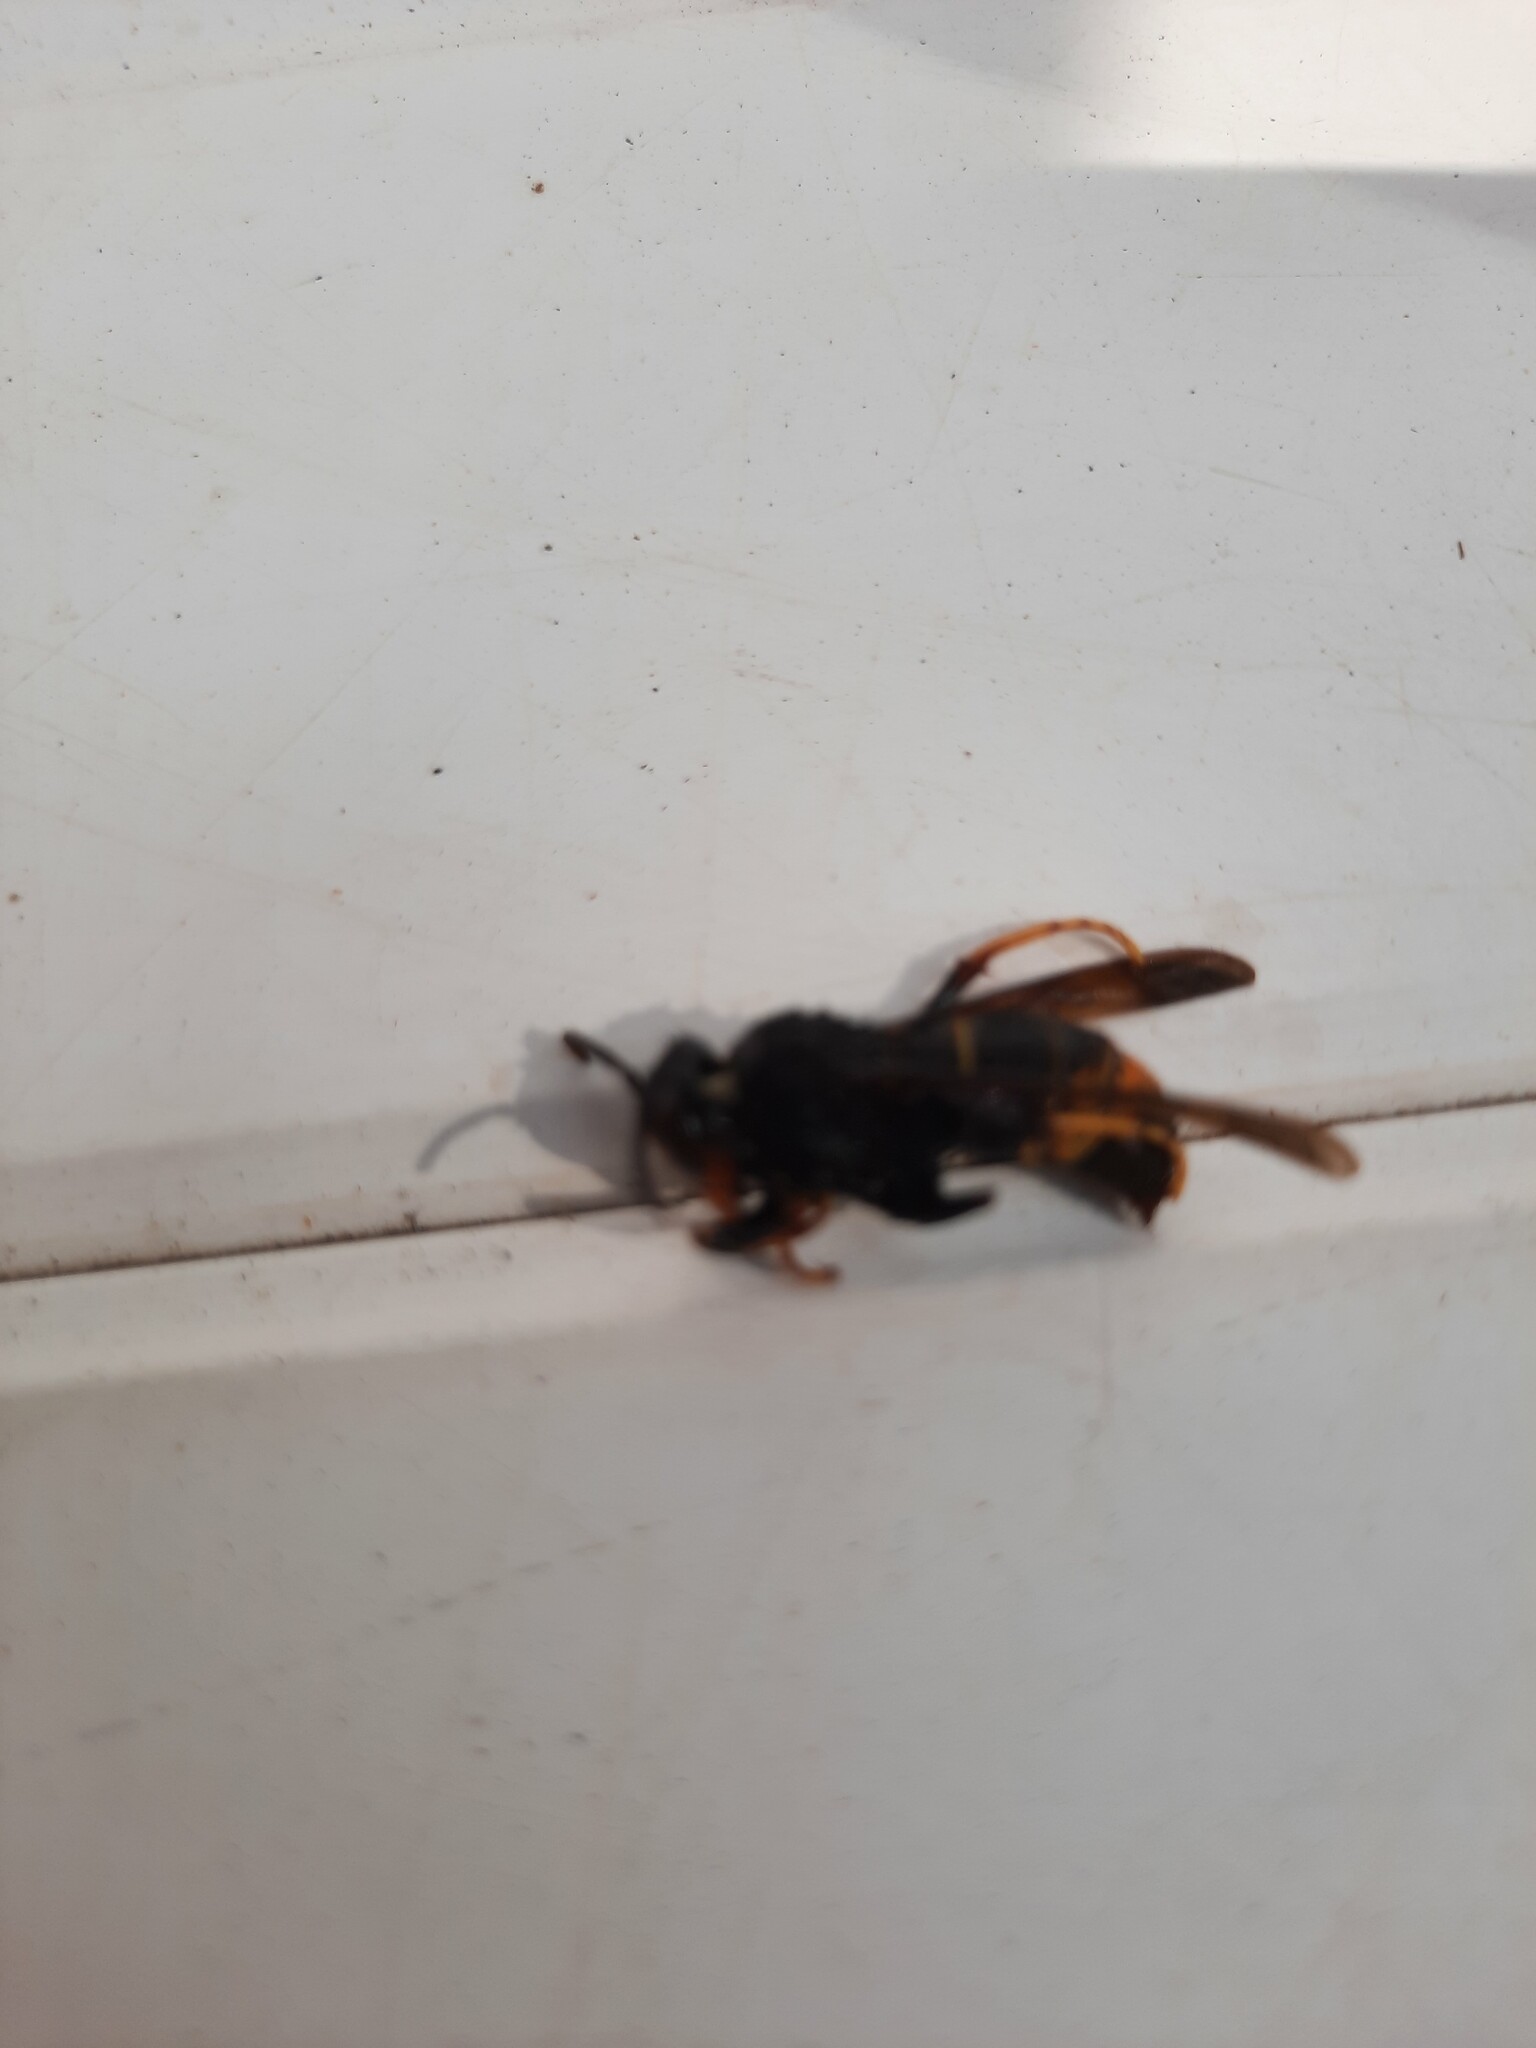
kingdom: Animalia
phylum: Arthropoda
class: Insecta
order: Hymenoptera
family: Vespidae
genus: Vespa
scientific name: Vespa velutina
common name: Asian hornet
